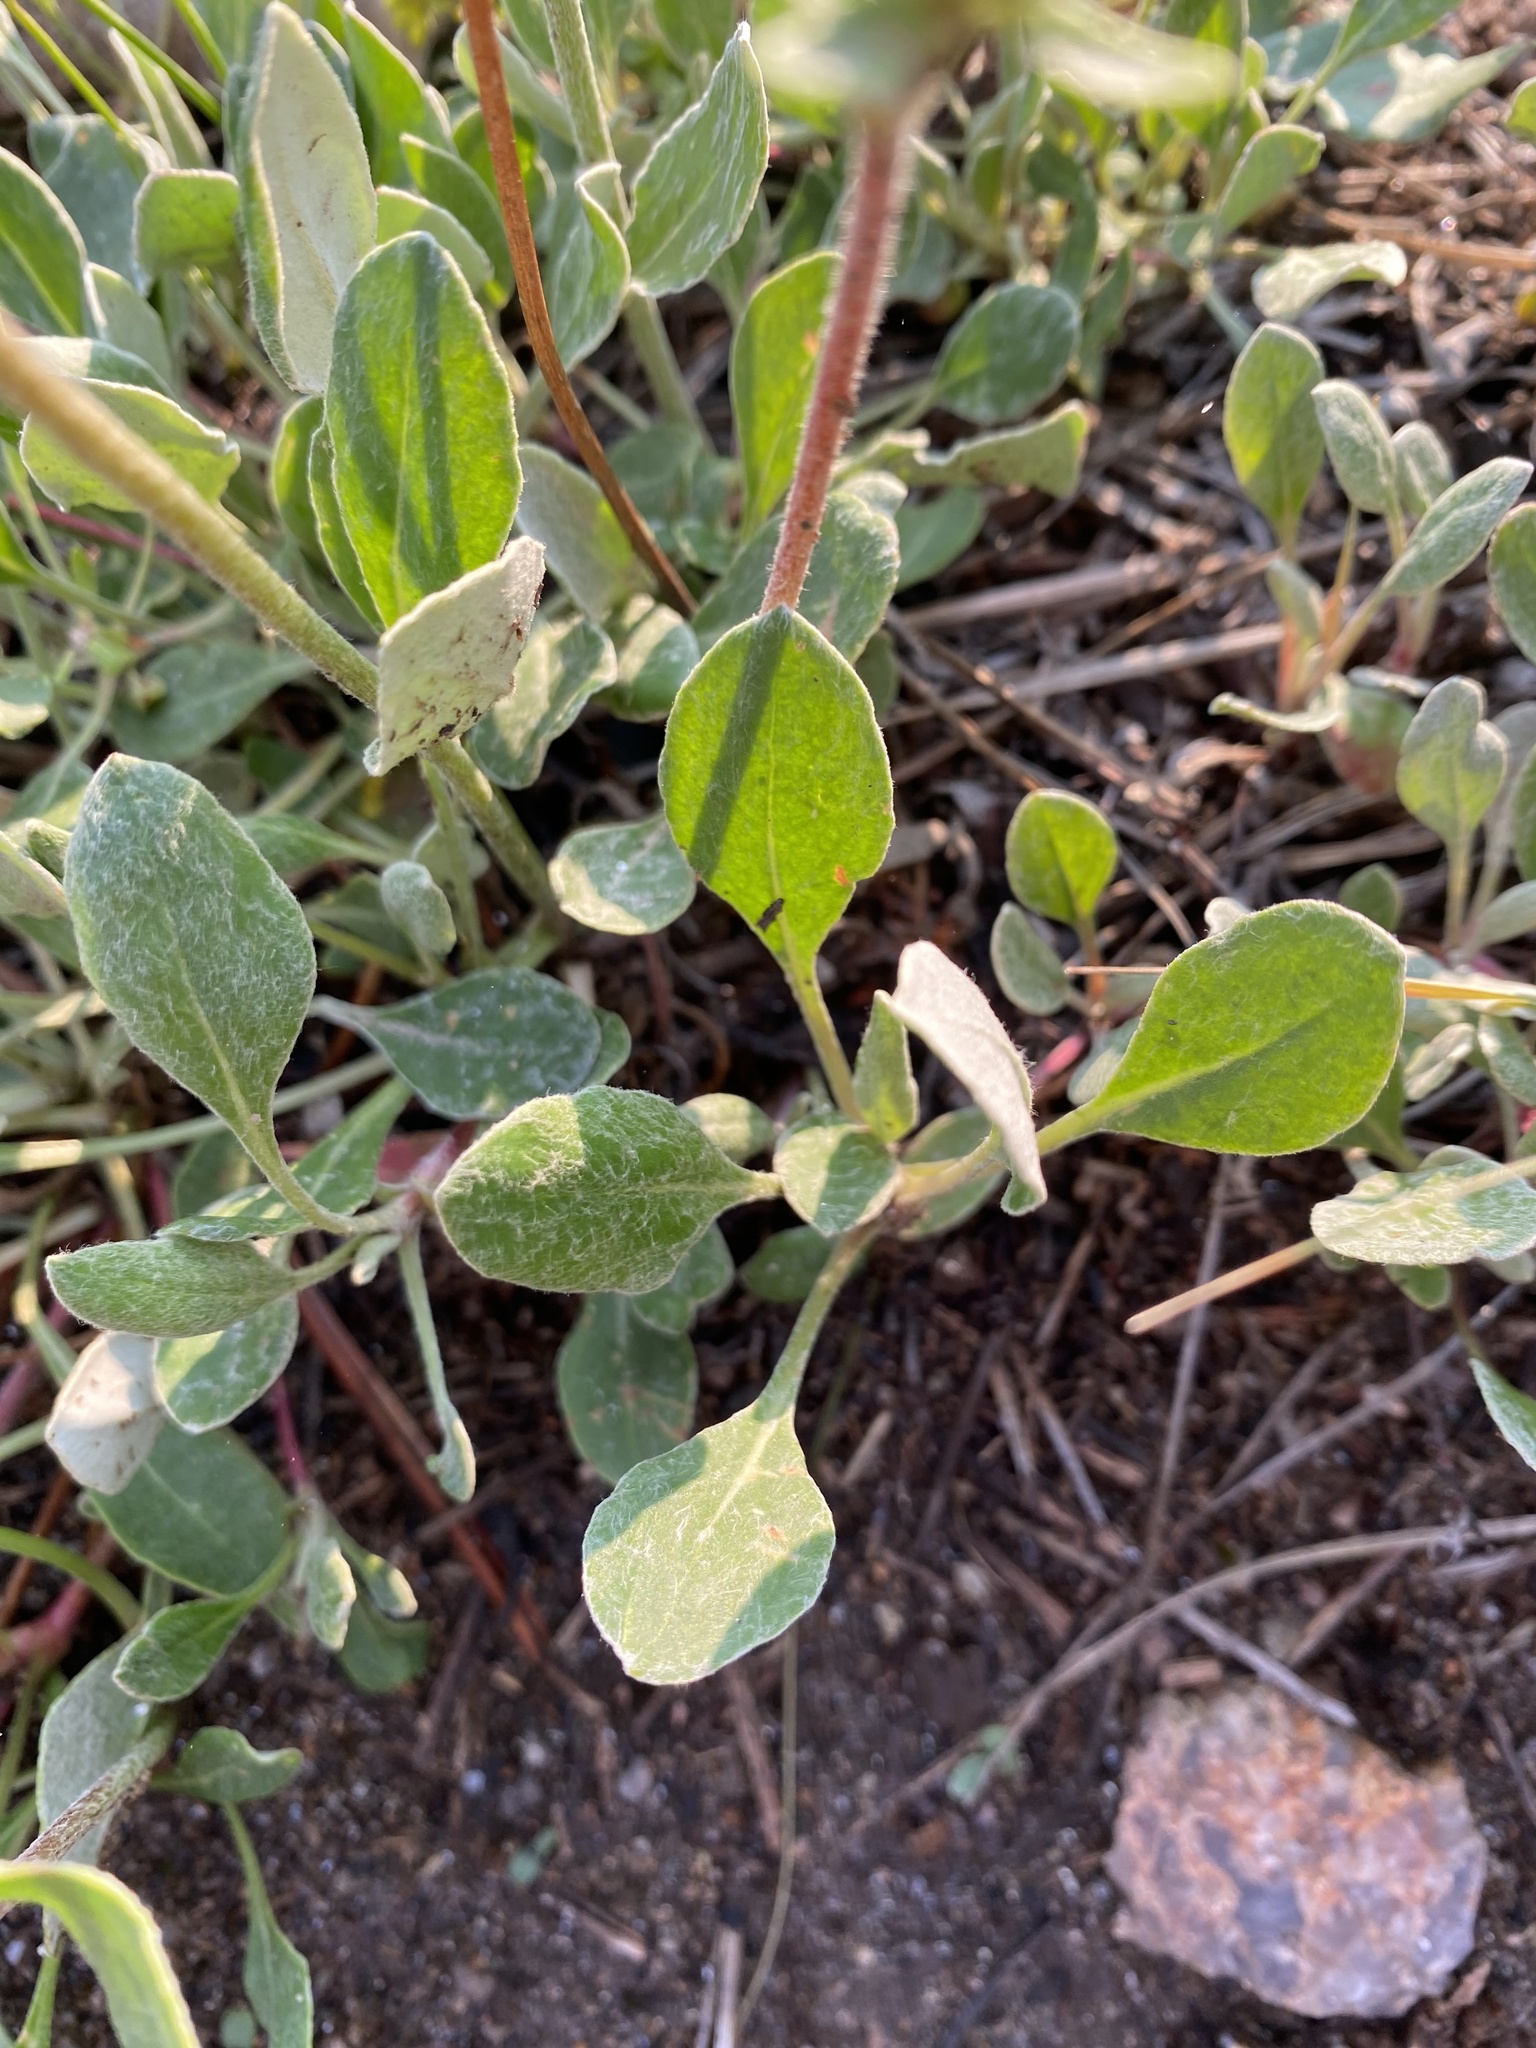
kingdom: Plantae
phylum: Tracheophyta
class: Magnoliopsida
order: Caryophyllales
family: Polygonaceae
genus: Eriogonum
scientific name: Eriogonum umbellatum
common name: Sulfur-buckwheat
